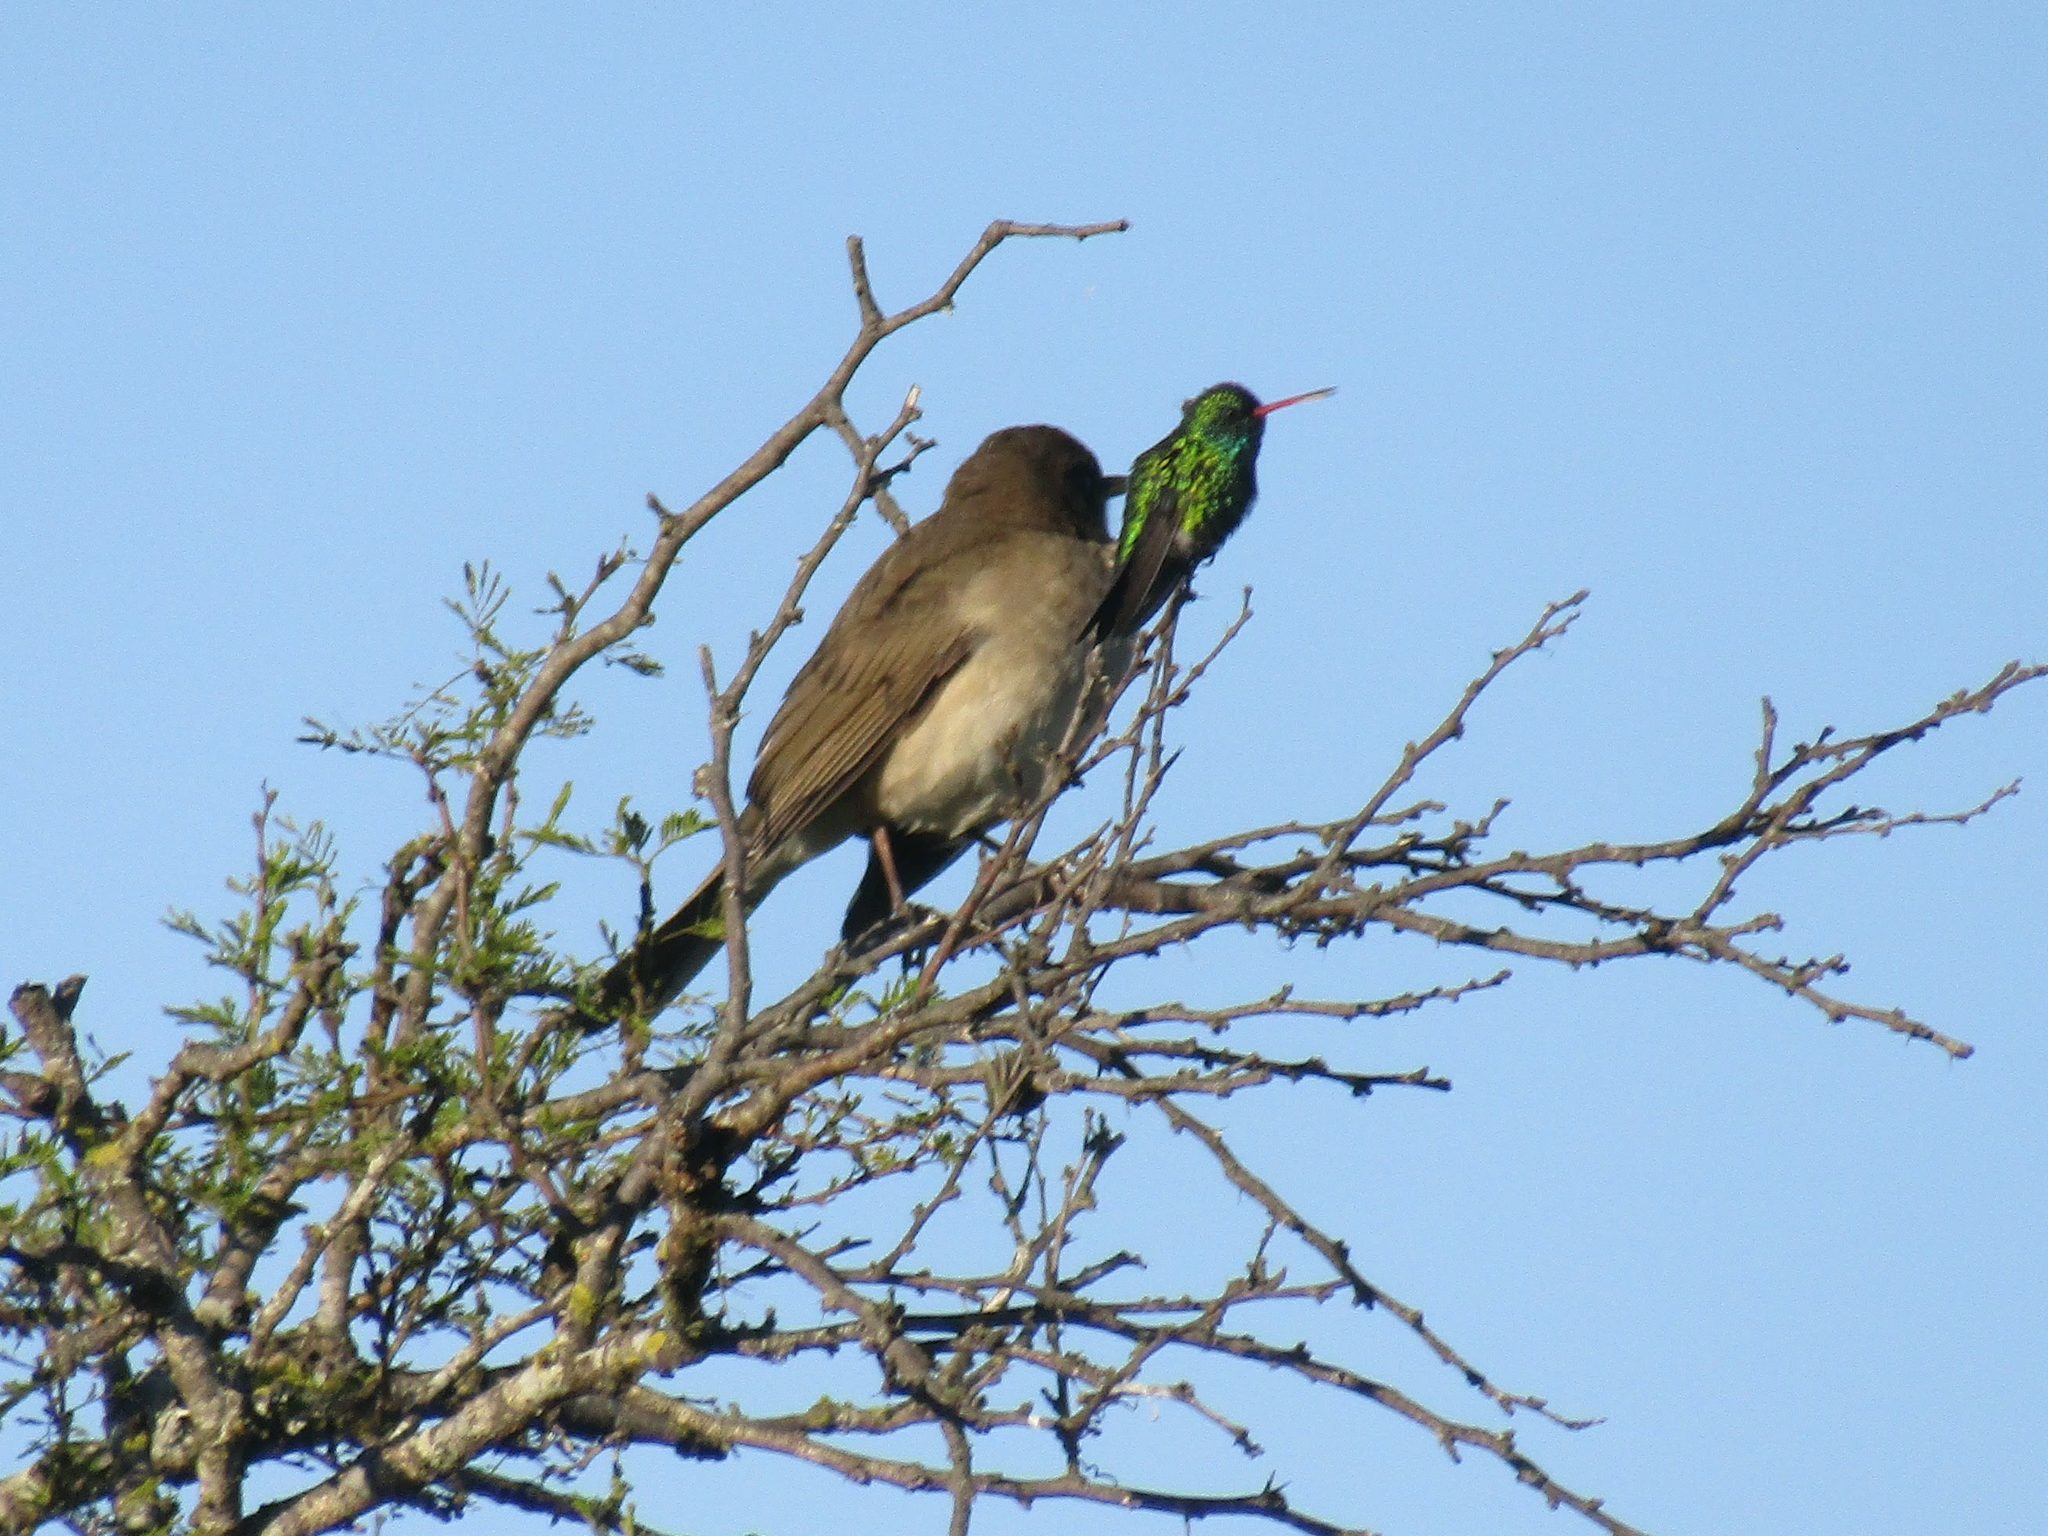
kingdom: Animalia
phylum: Chordata
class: Aves
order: Passeriformes
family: Turdidae
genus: Turdus
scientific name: Turdus amaurochalinus
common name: Creamy-bellied thrush
